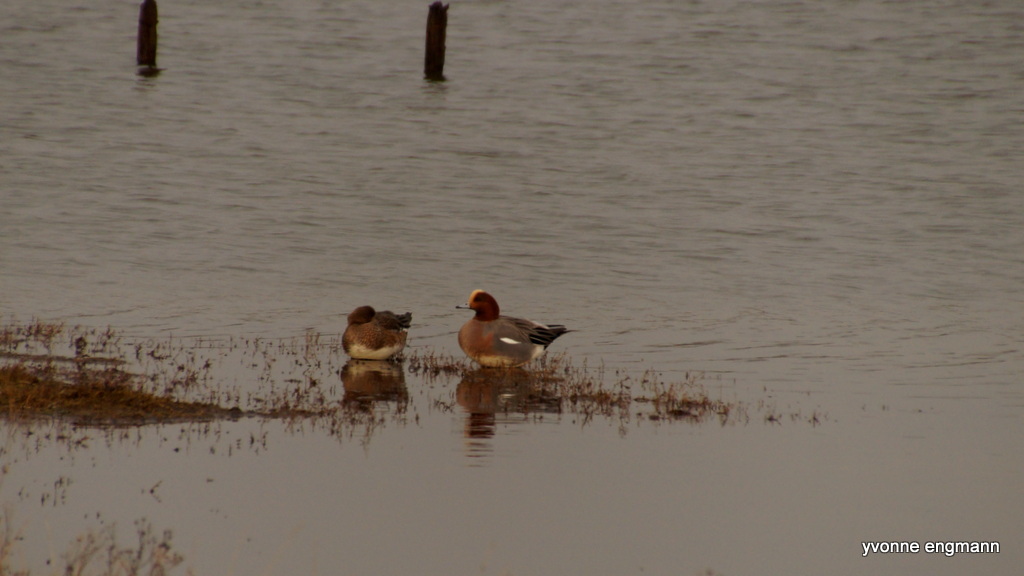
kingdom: Animalia
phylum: Chordata
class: Aves
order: Anseriformes
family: Anatidae
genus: Mareca
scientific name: Mareca penelope
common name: Eurasian wigeon
